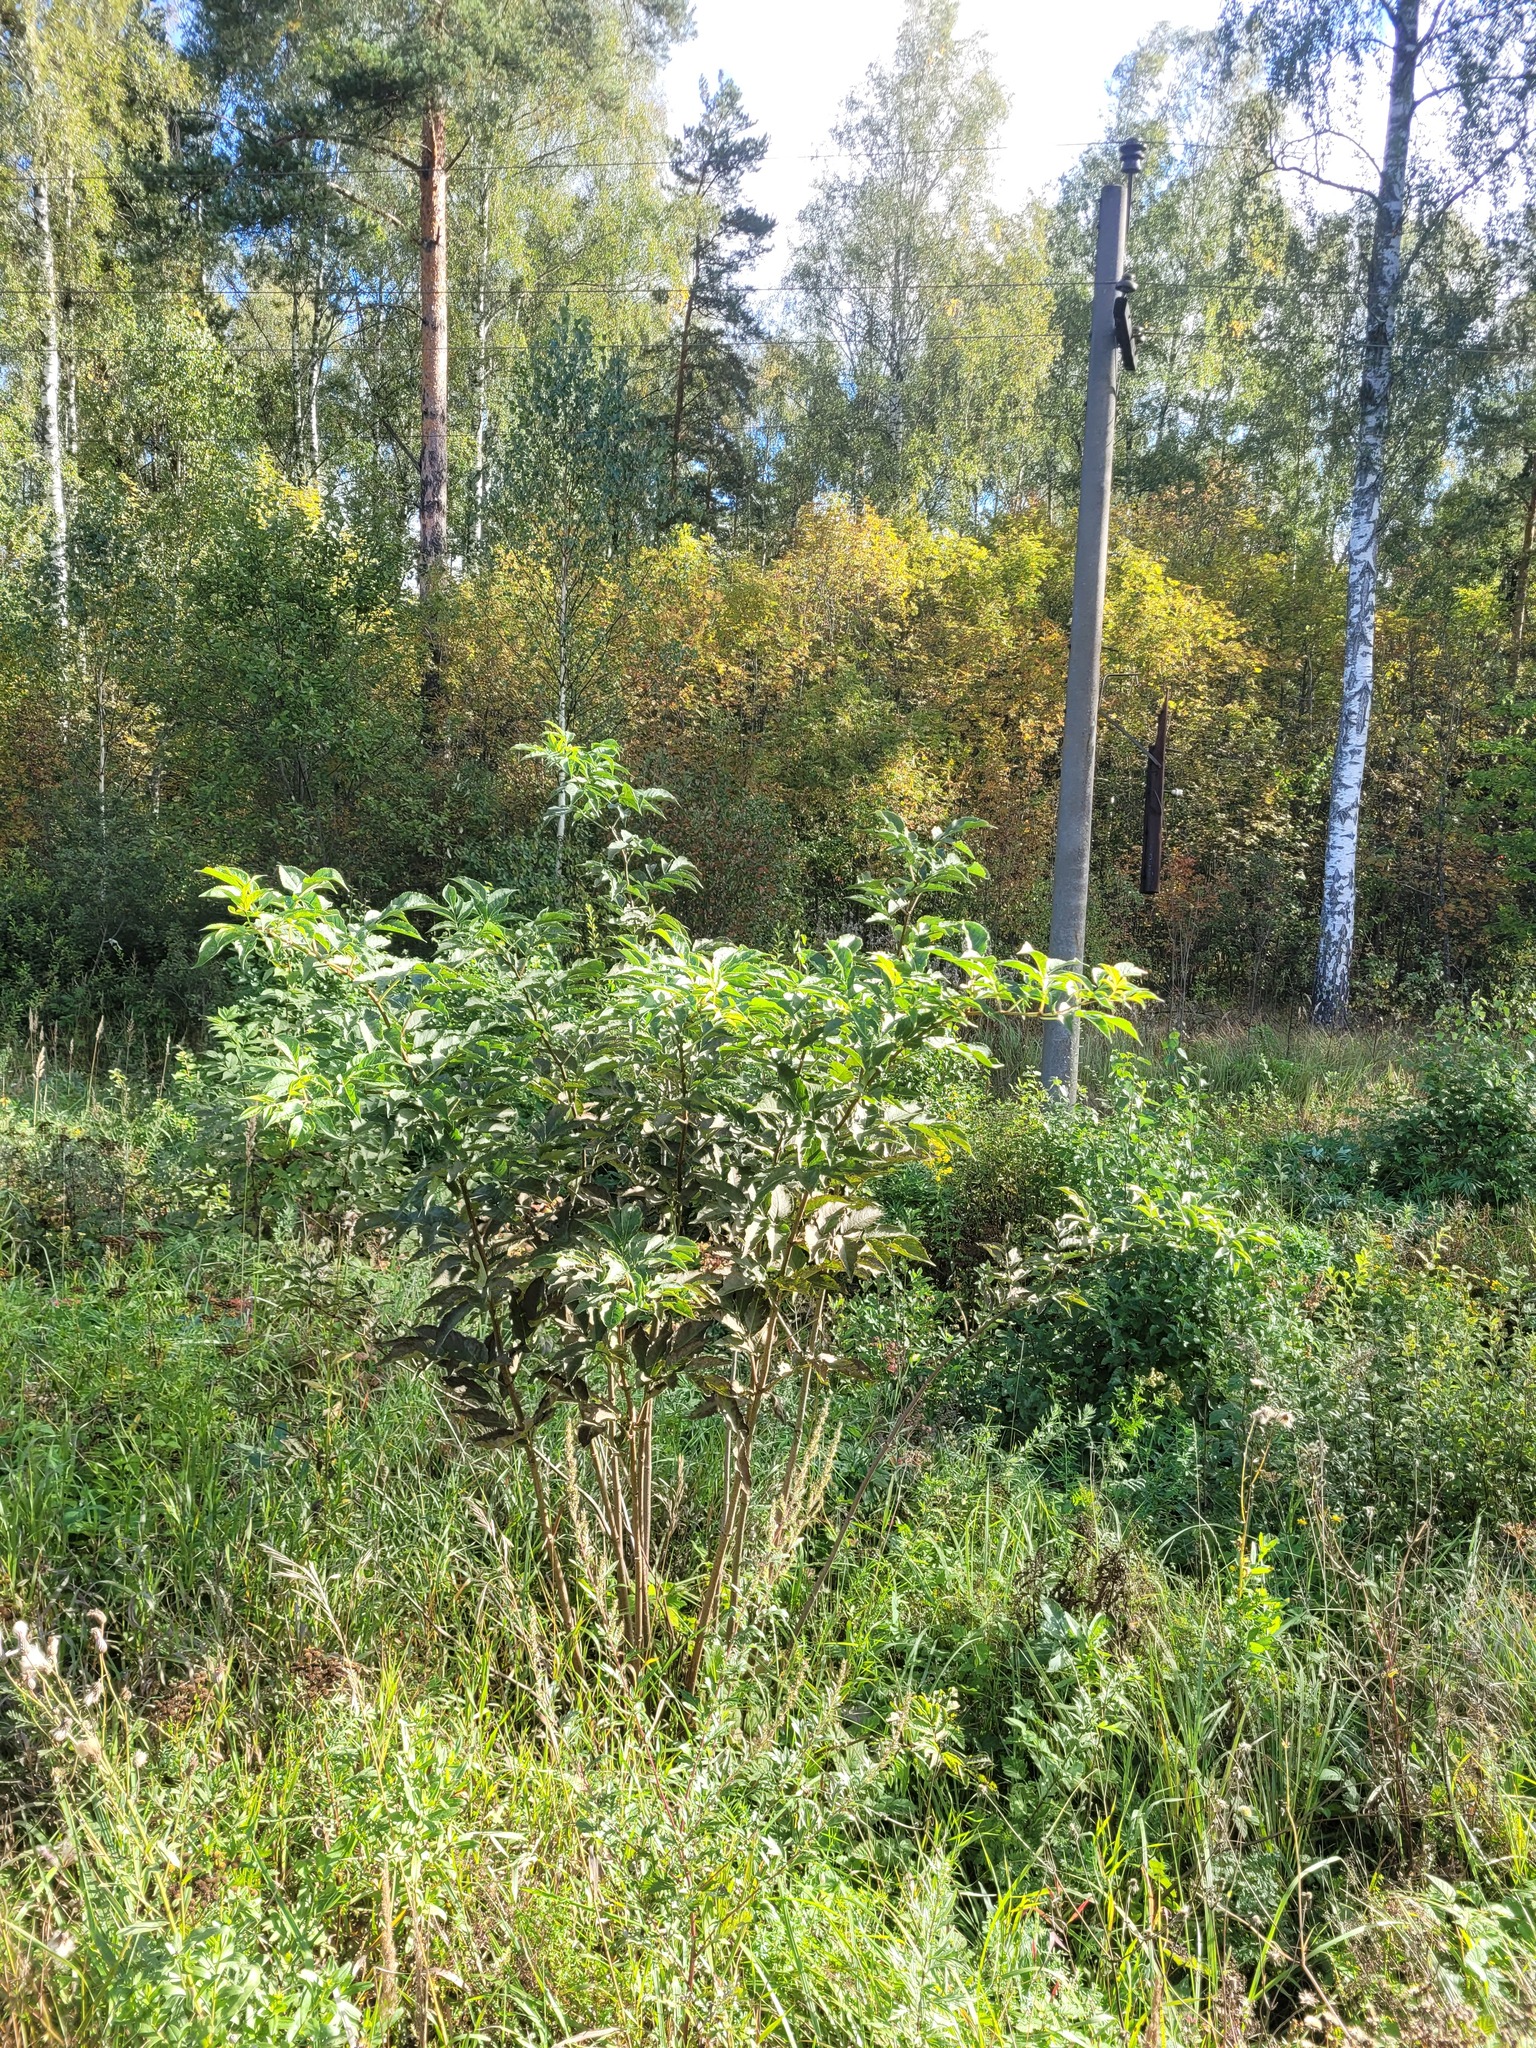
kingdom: Plantae
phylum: Tracheophyta
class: Magnoliopsida
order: Dipsacales
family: Viburnaceae
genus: Sambucus
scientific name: Sambucus racemosa
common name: Red-berried elder
